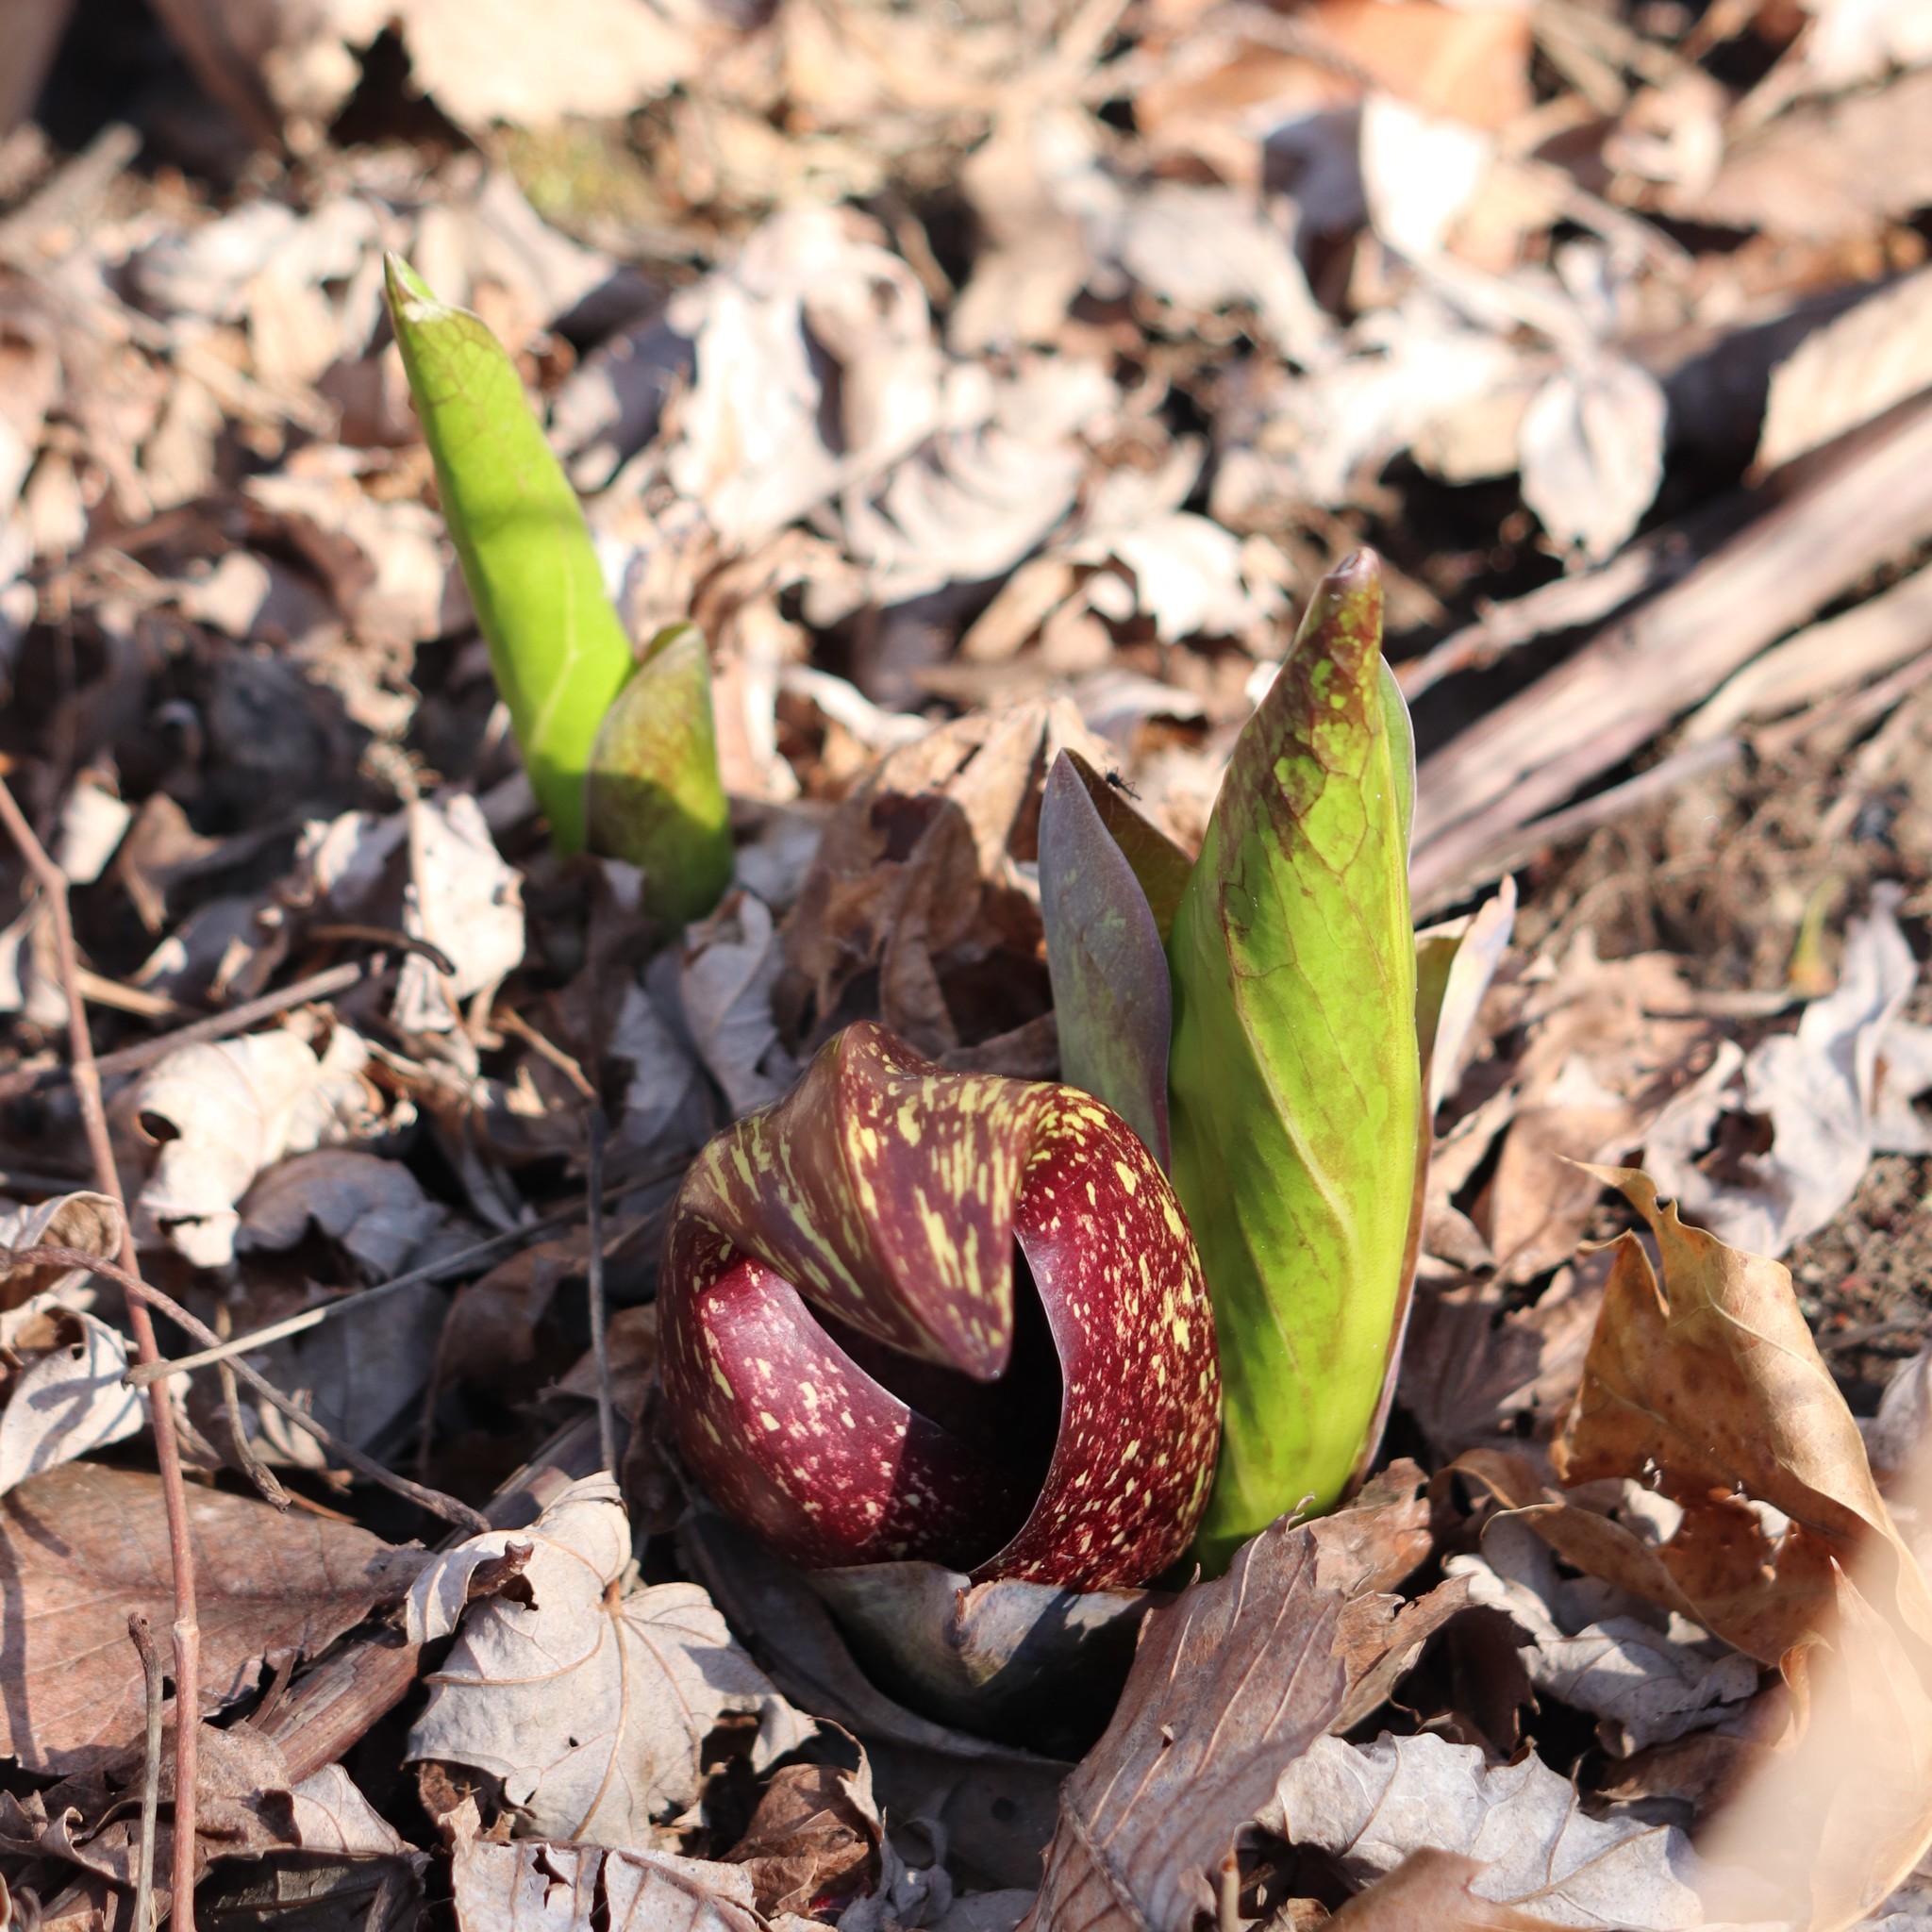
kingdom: Plantae
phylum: Tracheophyta
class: Liliopsida
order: Alismatales
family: Araceae
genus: Symplocarpus
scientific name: Symplocarpus foetidus
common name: Eastern skunk cabbage
